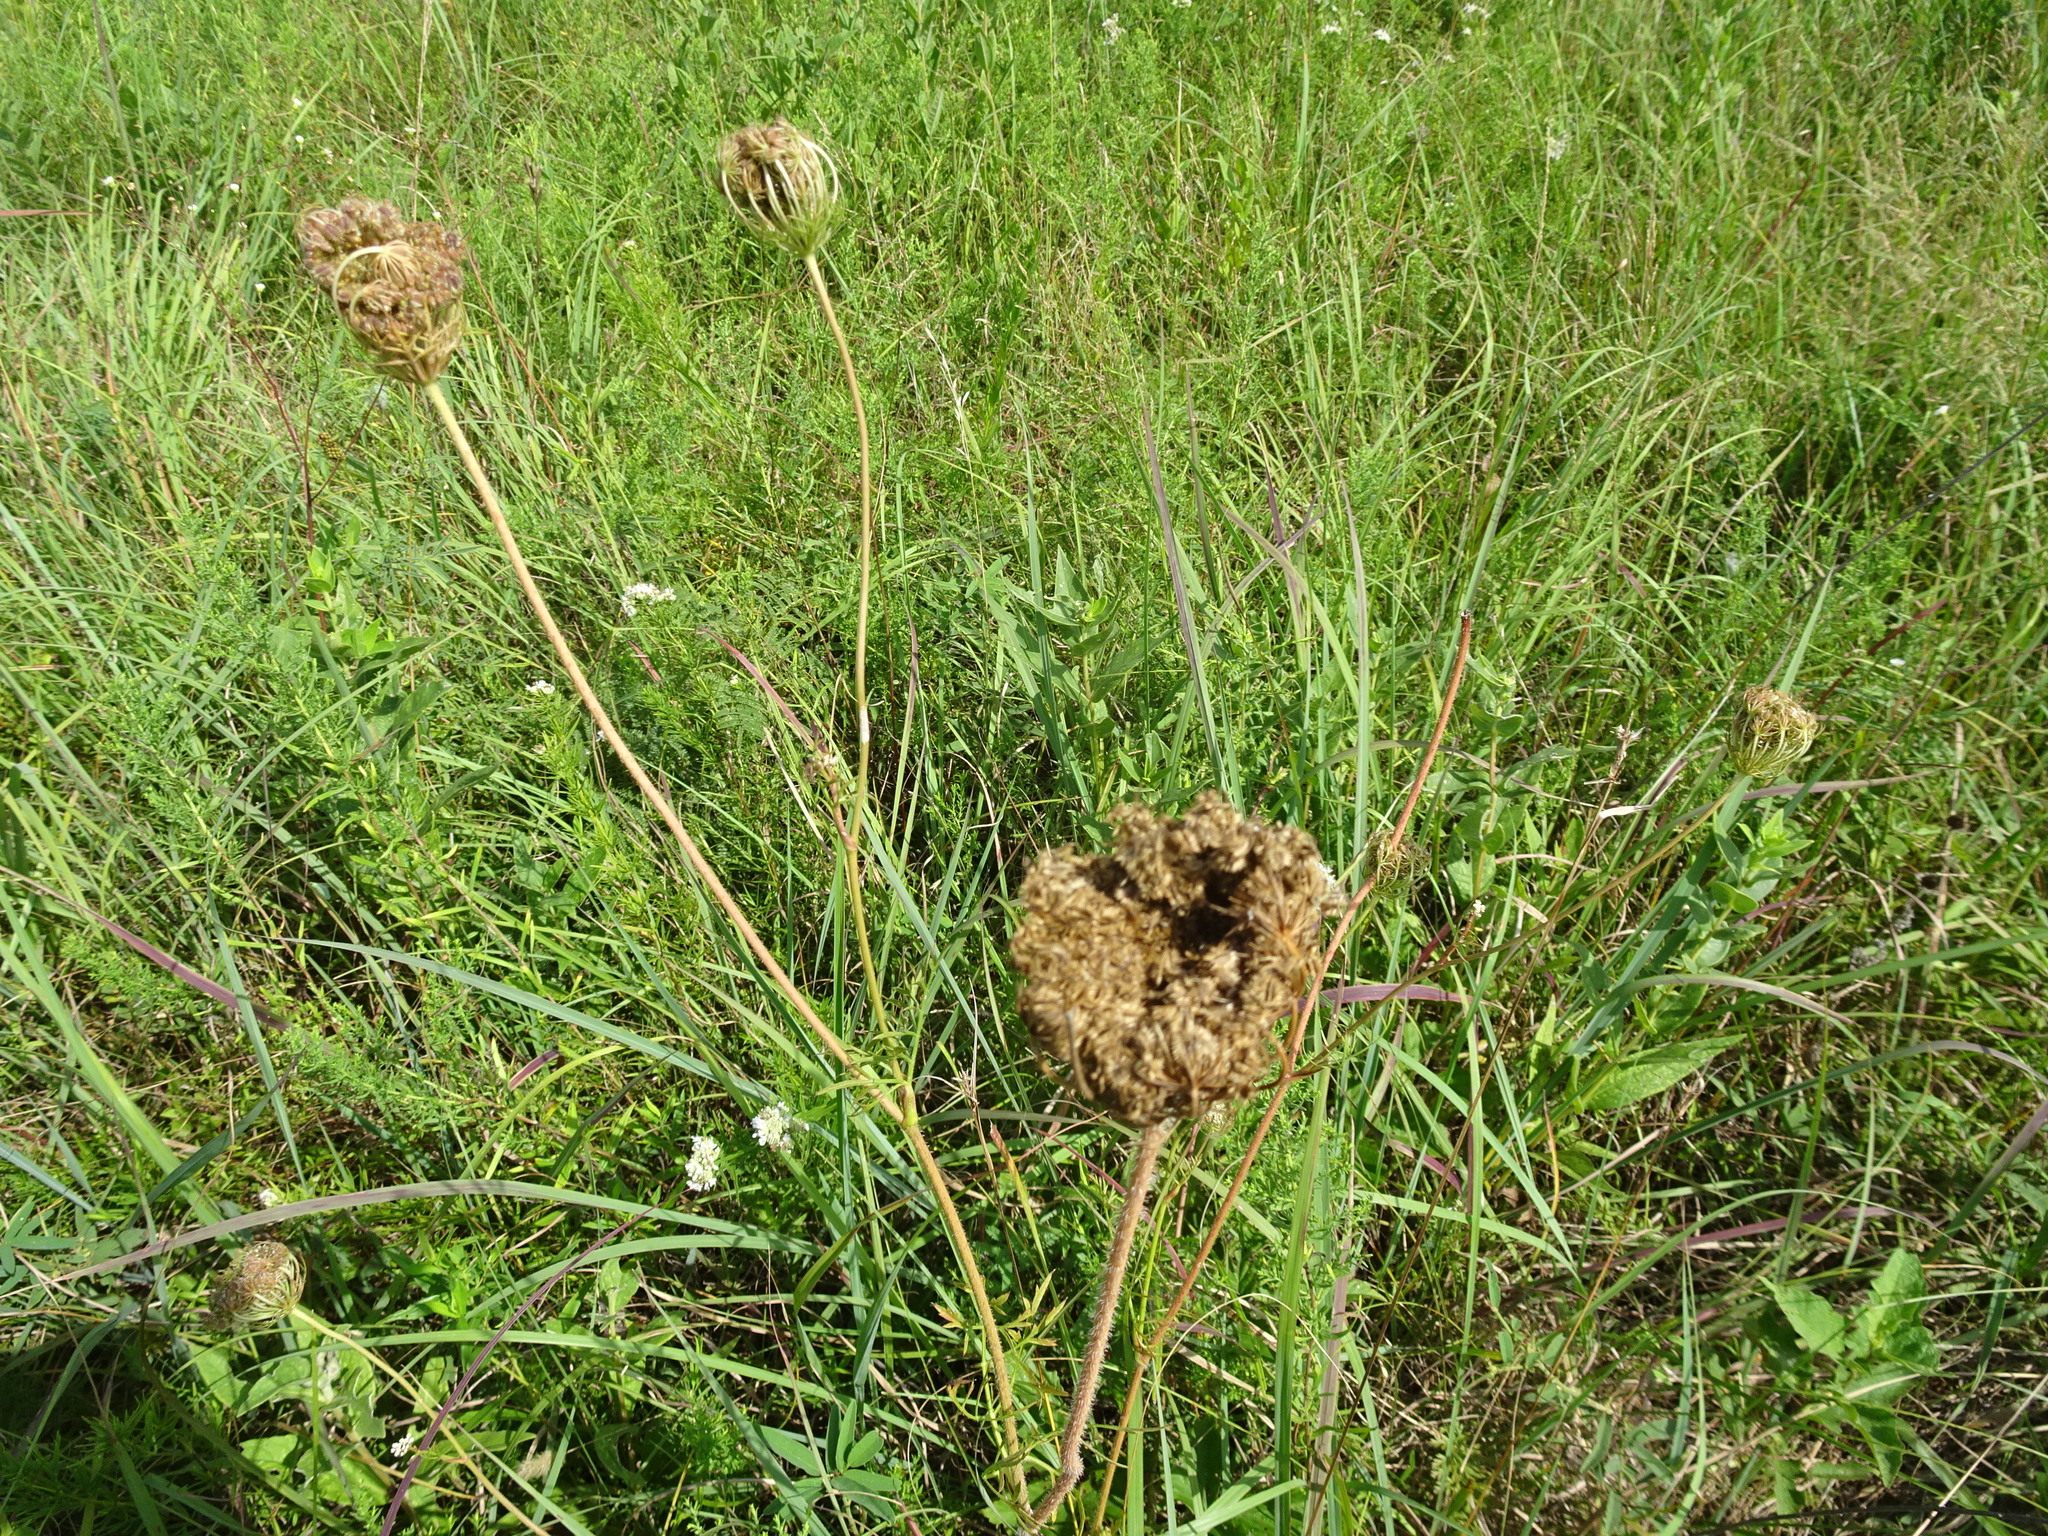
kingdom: Plantae
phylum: Tracheophyta
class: Magnoliopsida
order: Apiales
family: Apiaceae
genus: Daucus
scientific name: Daucus carota
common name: Wild carrot
